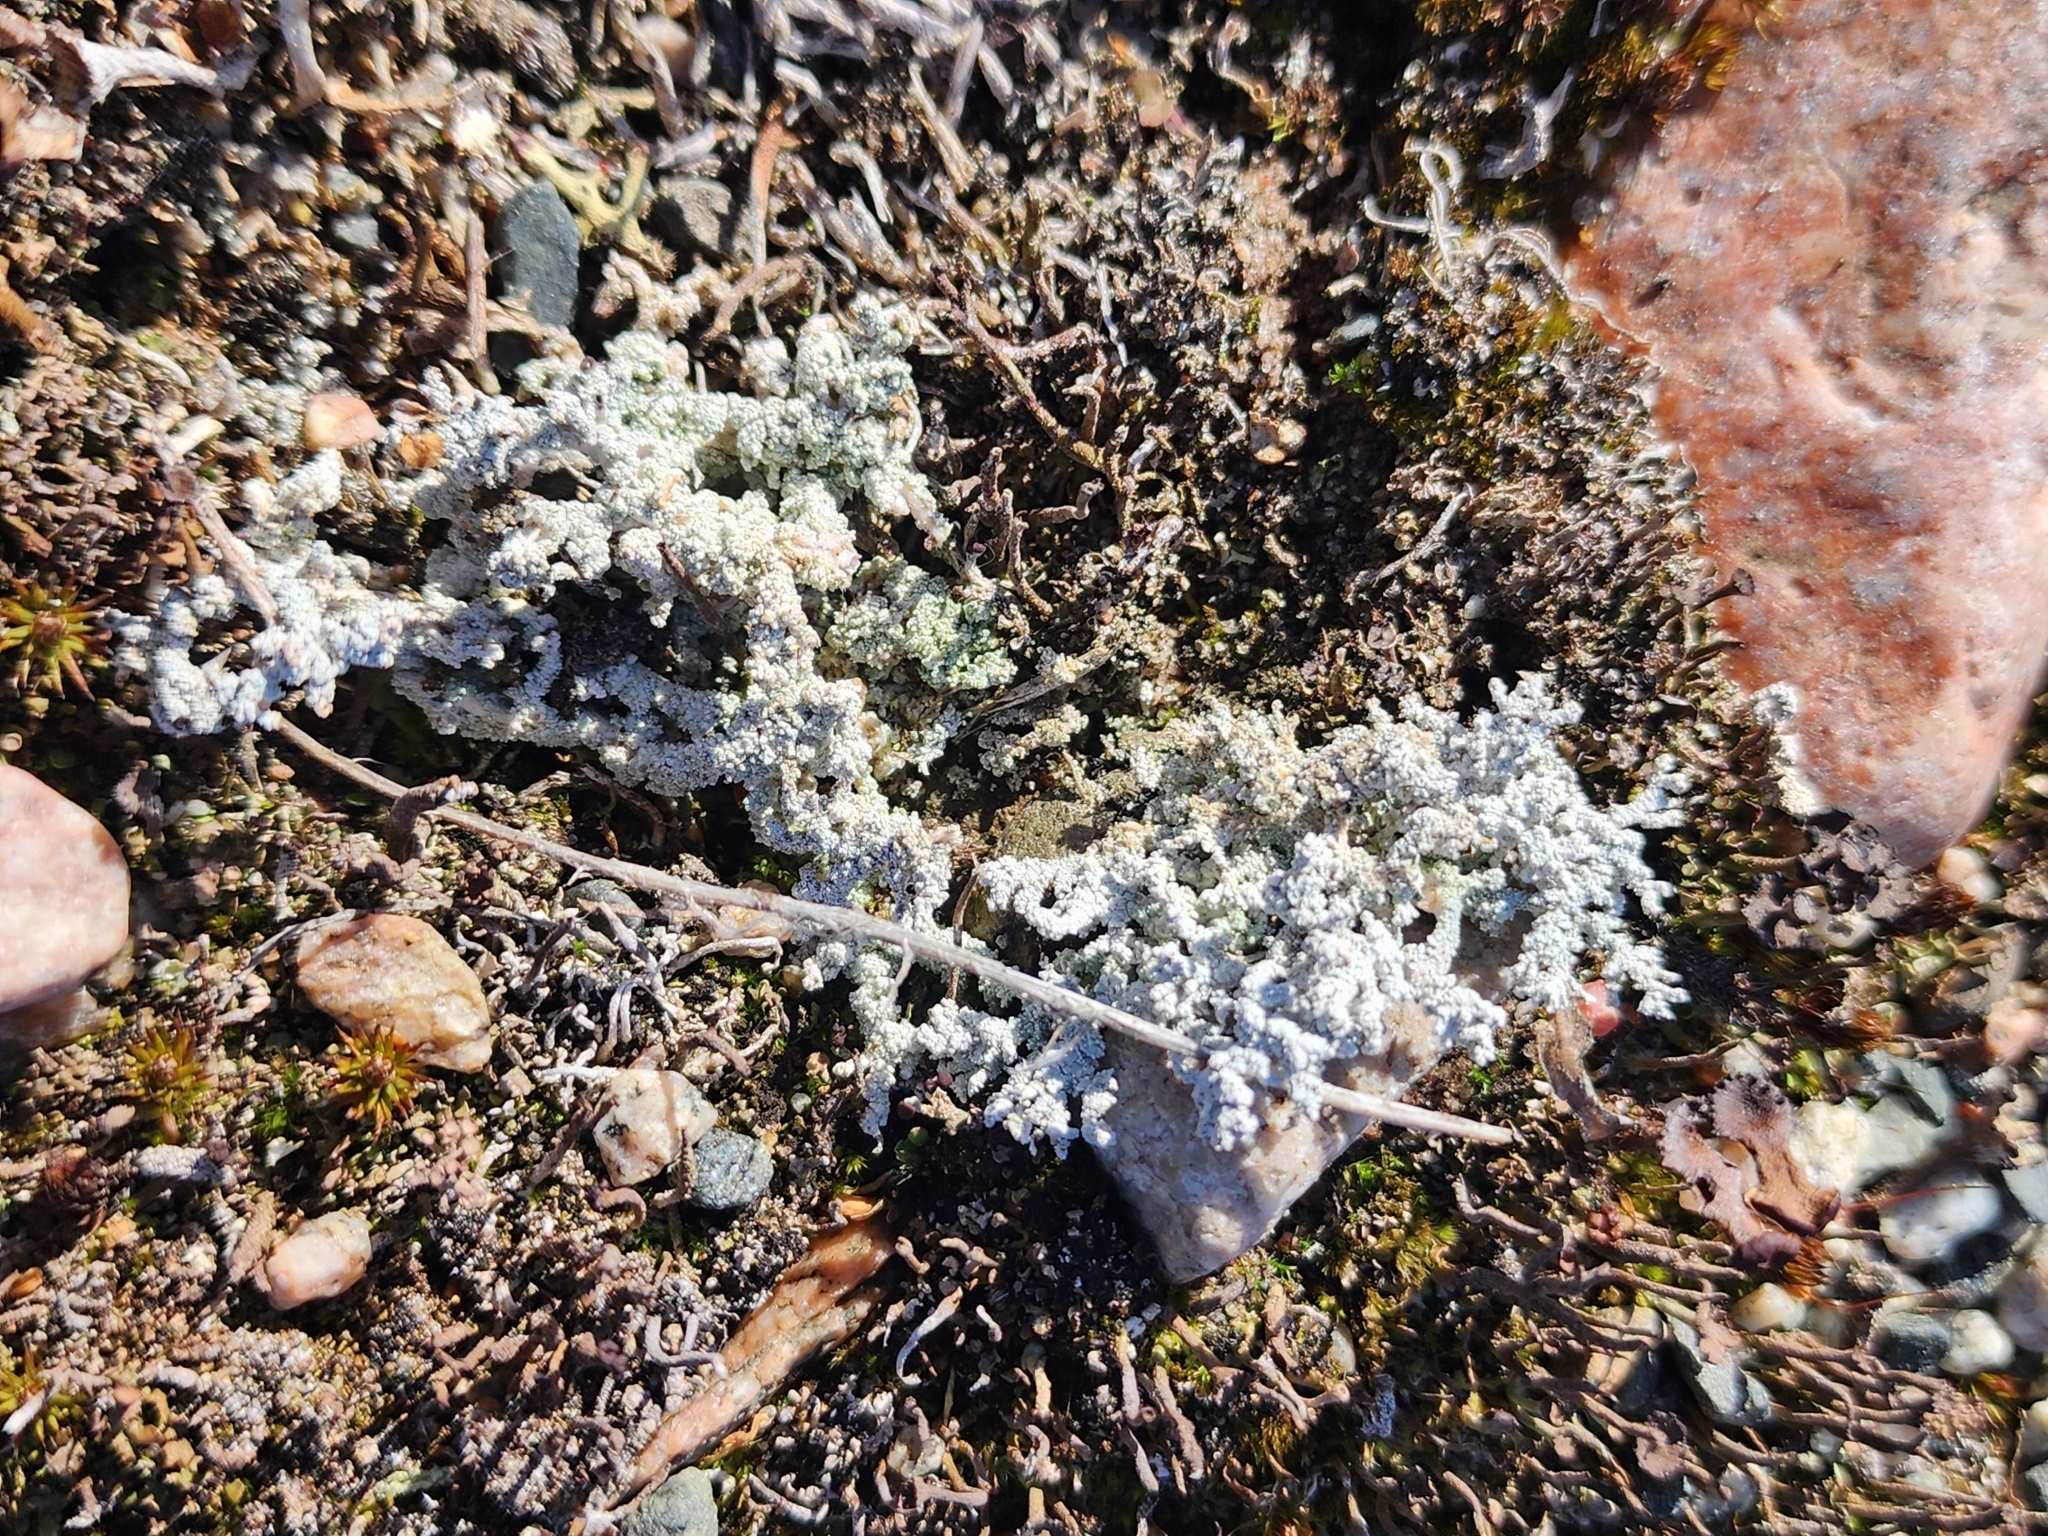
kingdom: Fungi
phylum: Ascomycota
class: Lecanoromycetes
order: Lecanorales
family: Stereocaulaceae
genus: Stereocaulon
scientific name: Stereocaulon paschale
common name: Cottontail foam lichen
